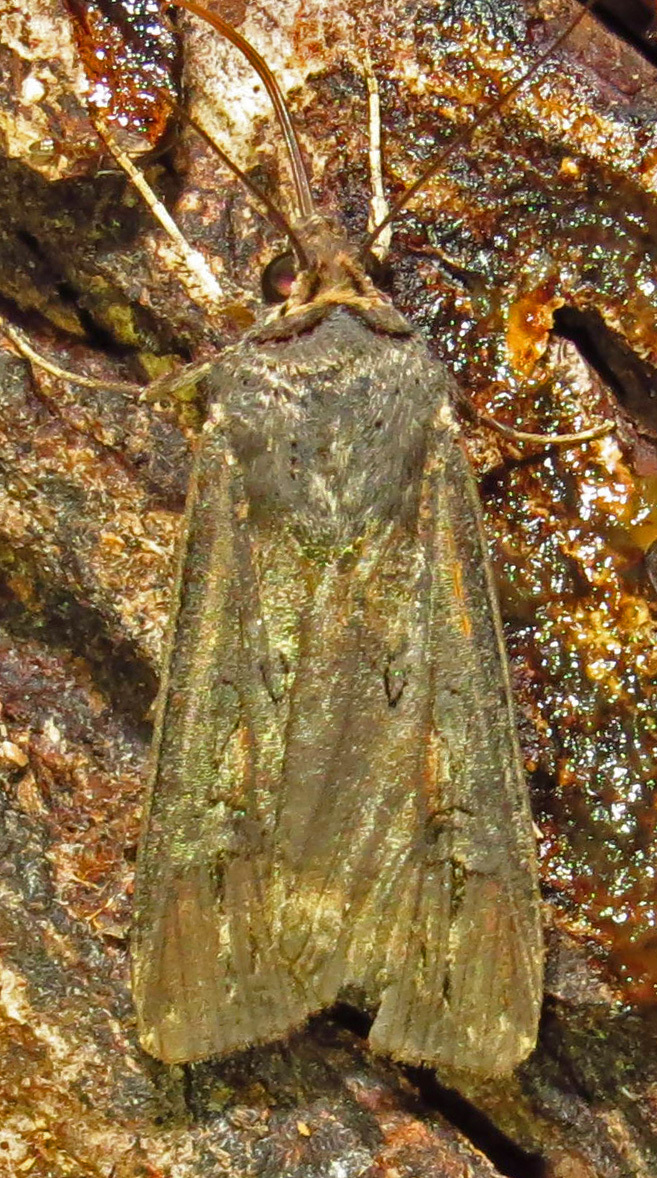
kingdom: Animalia
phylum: Arthropoda
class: Insecta
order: Lepidoptera
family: Noctuidae
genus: Agrotis
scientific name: Agrotis ipsilon
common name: Dark sword-grass
